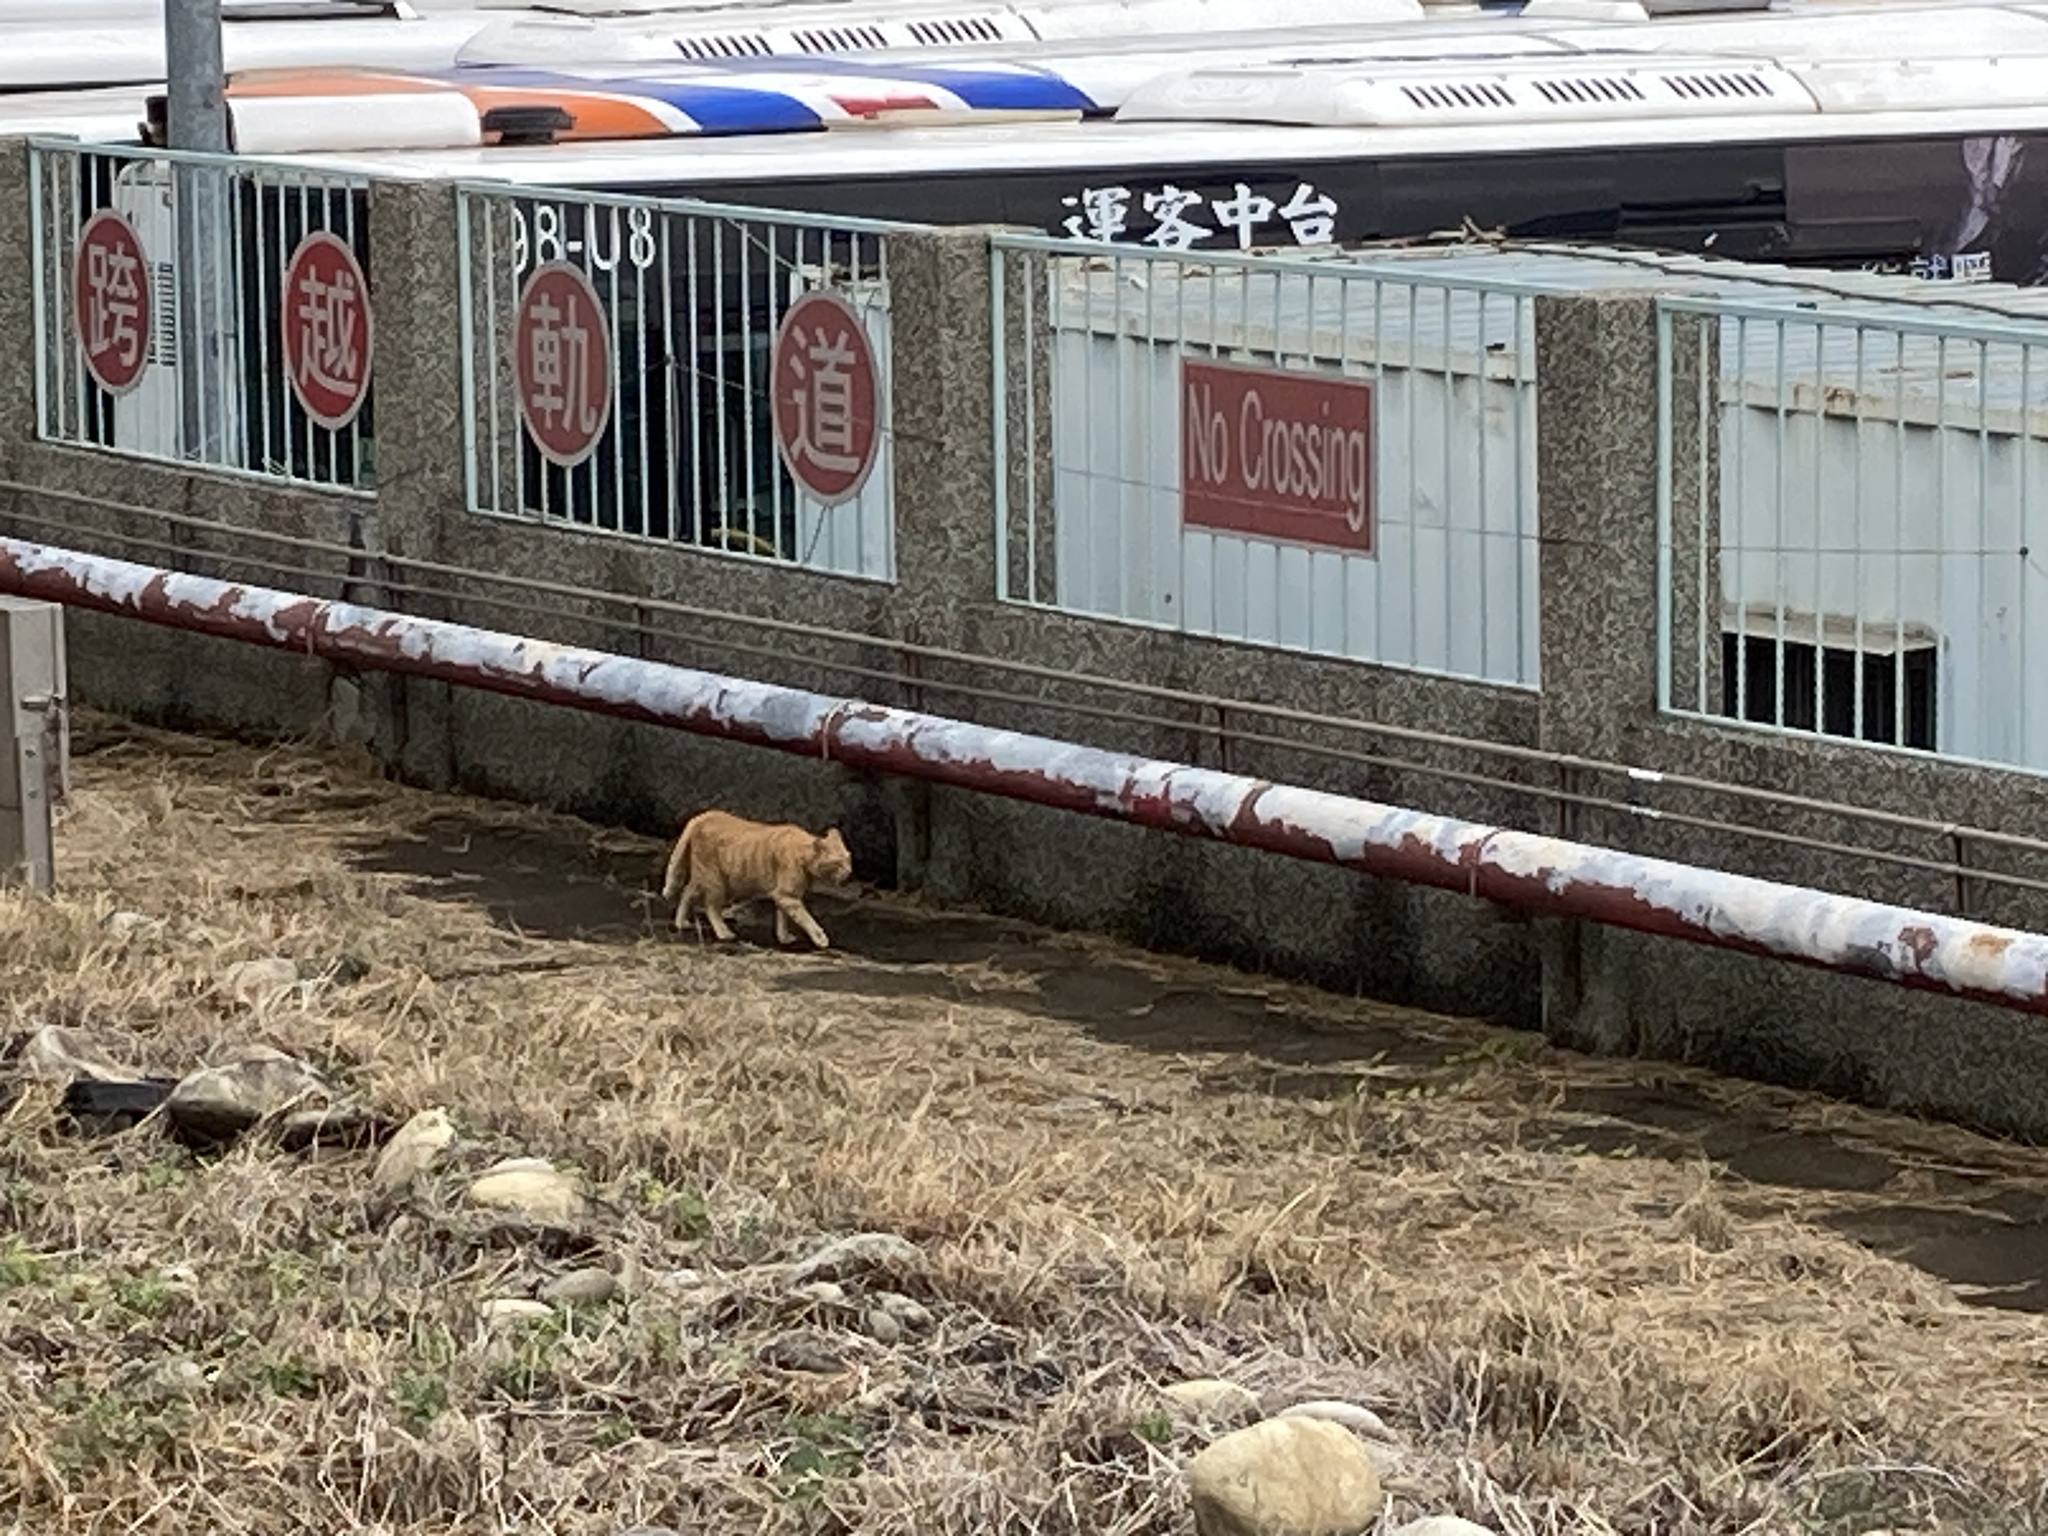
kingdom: Animalia
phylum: Chordata
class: Mammalia
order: Carnivora
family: Felidae
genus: Felis
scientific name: Felis catus
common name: Domestic cat
